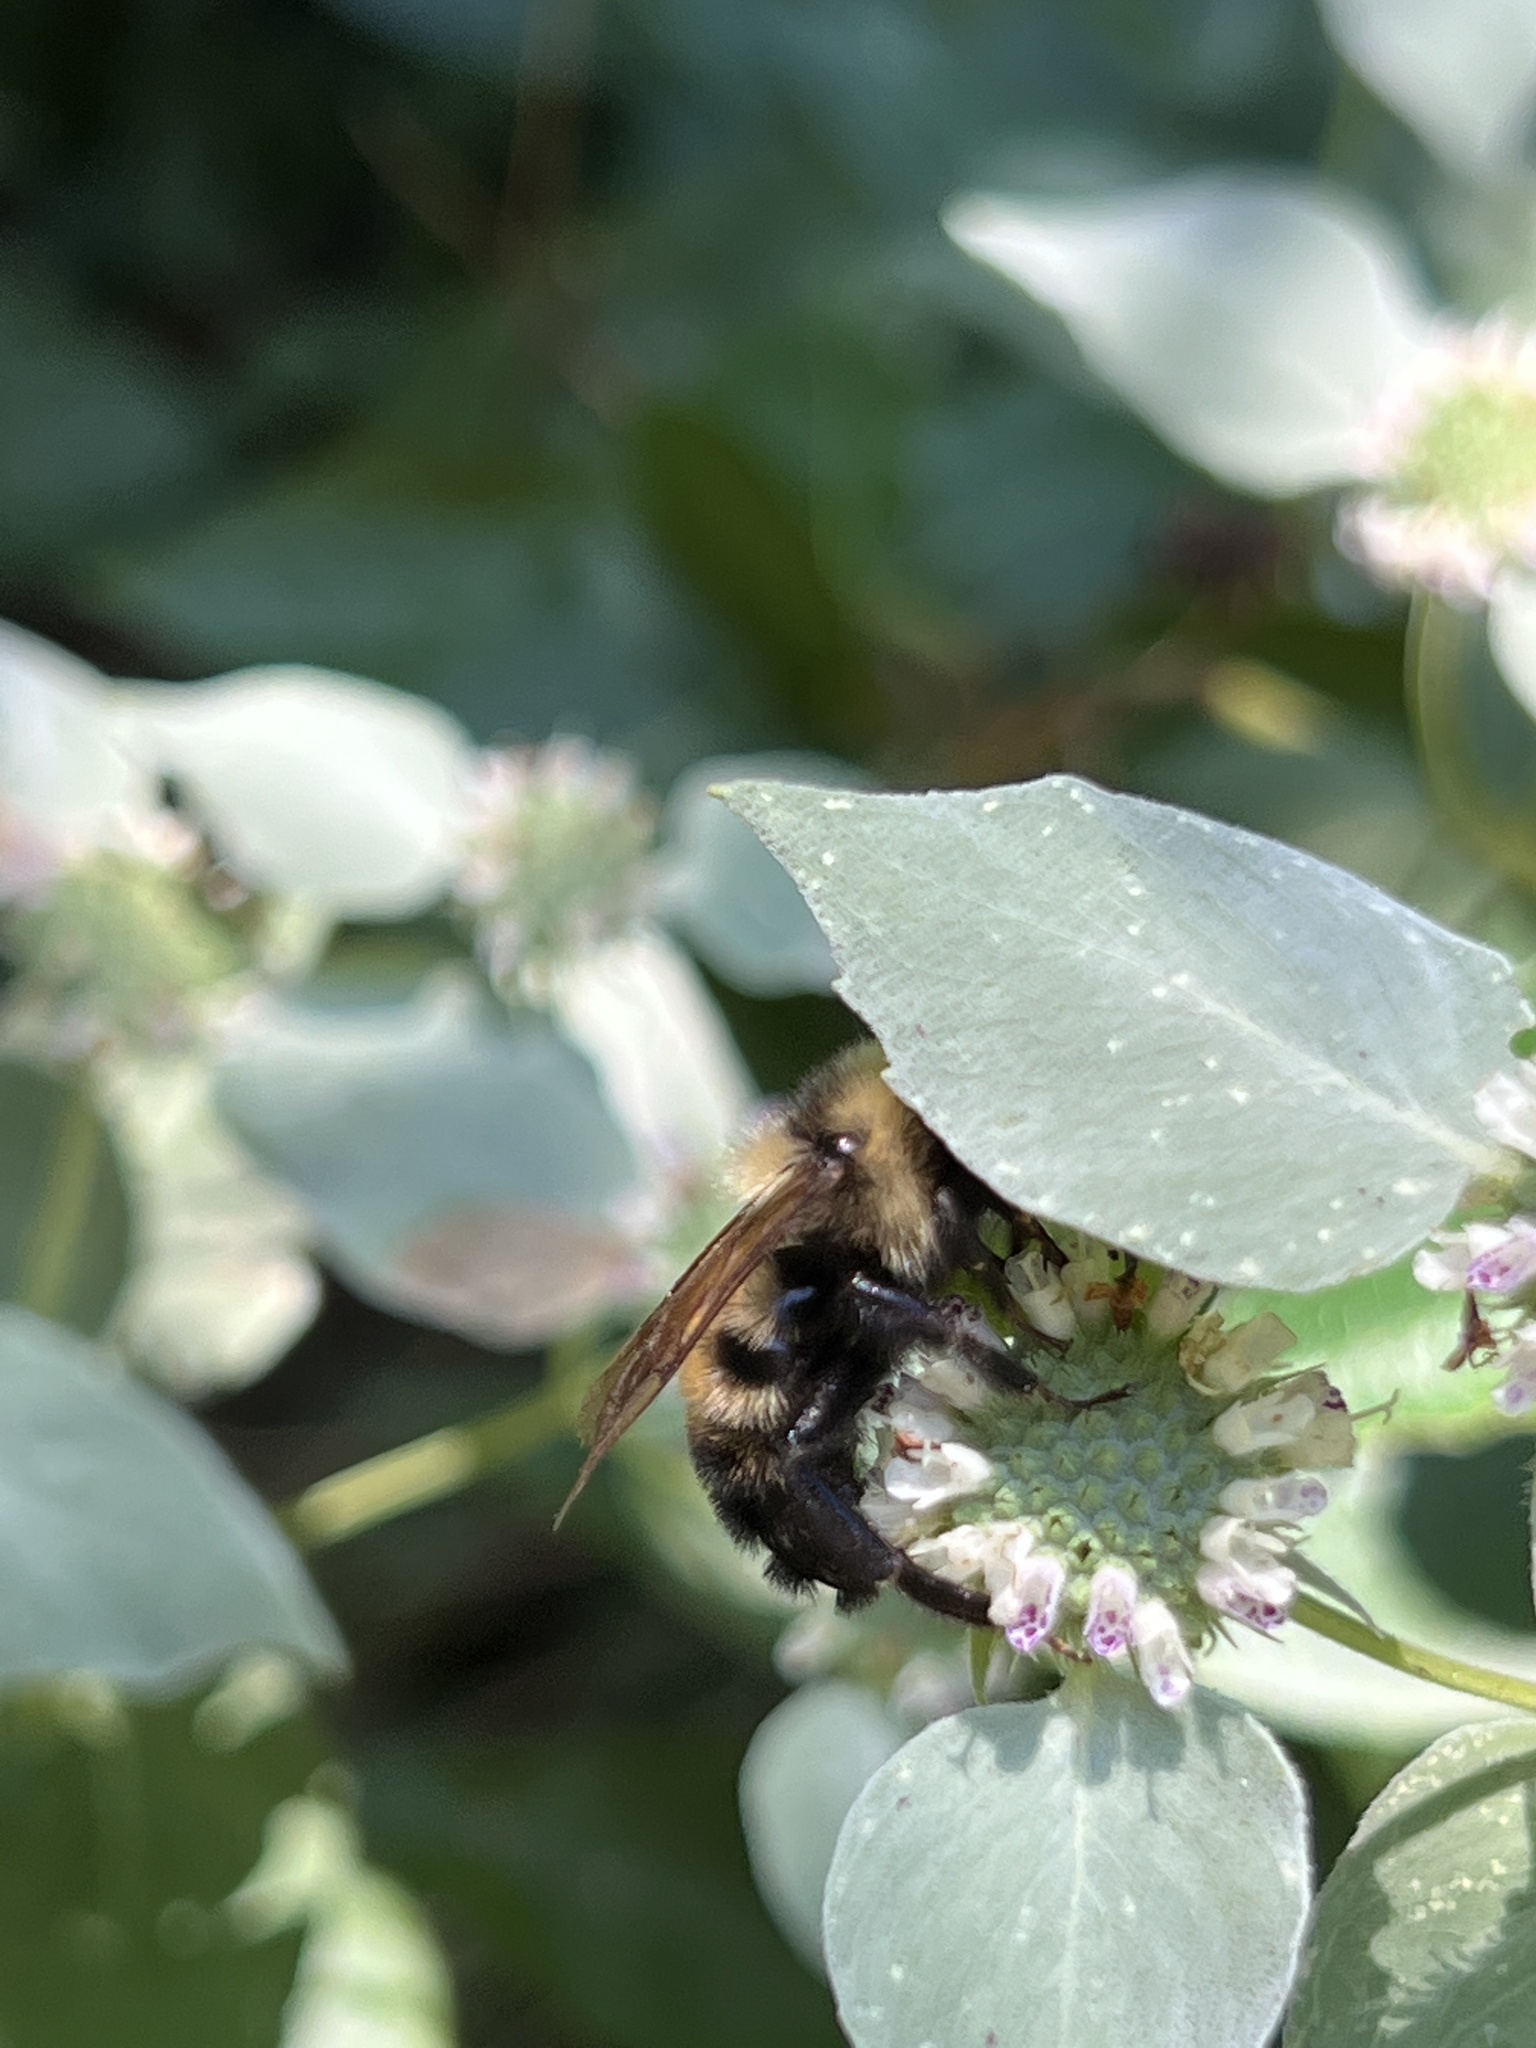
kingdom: Animalia
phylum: Arthropoda
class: Insecta
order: Hymenoptera
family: Apidae
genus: Bombus
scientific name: Bombus citrinus
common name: Lemon cuckoo bumble bee
